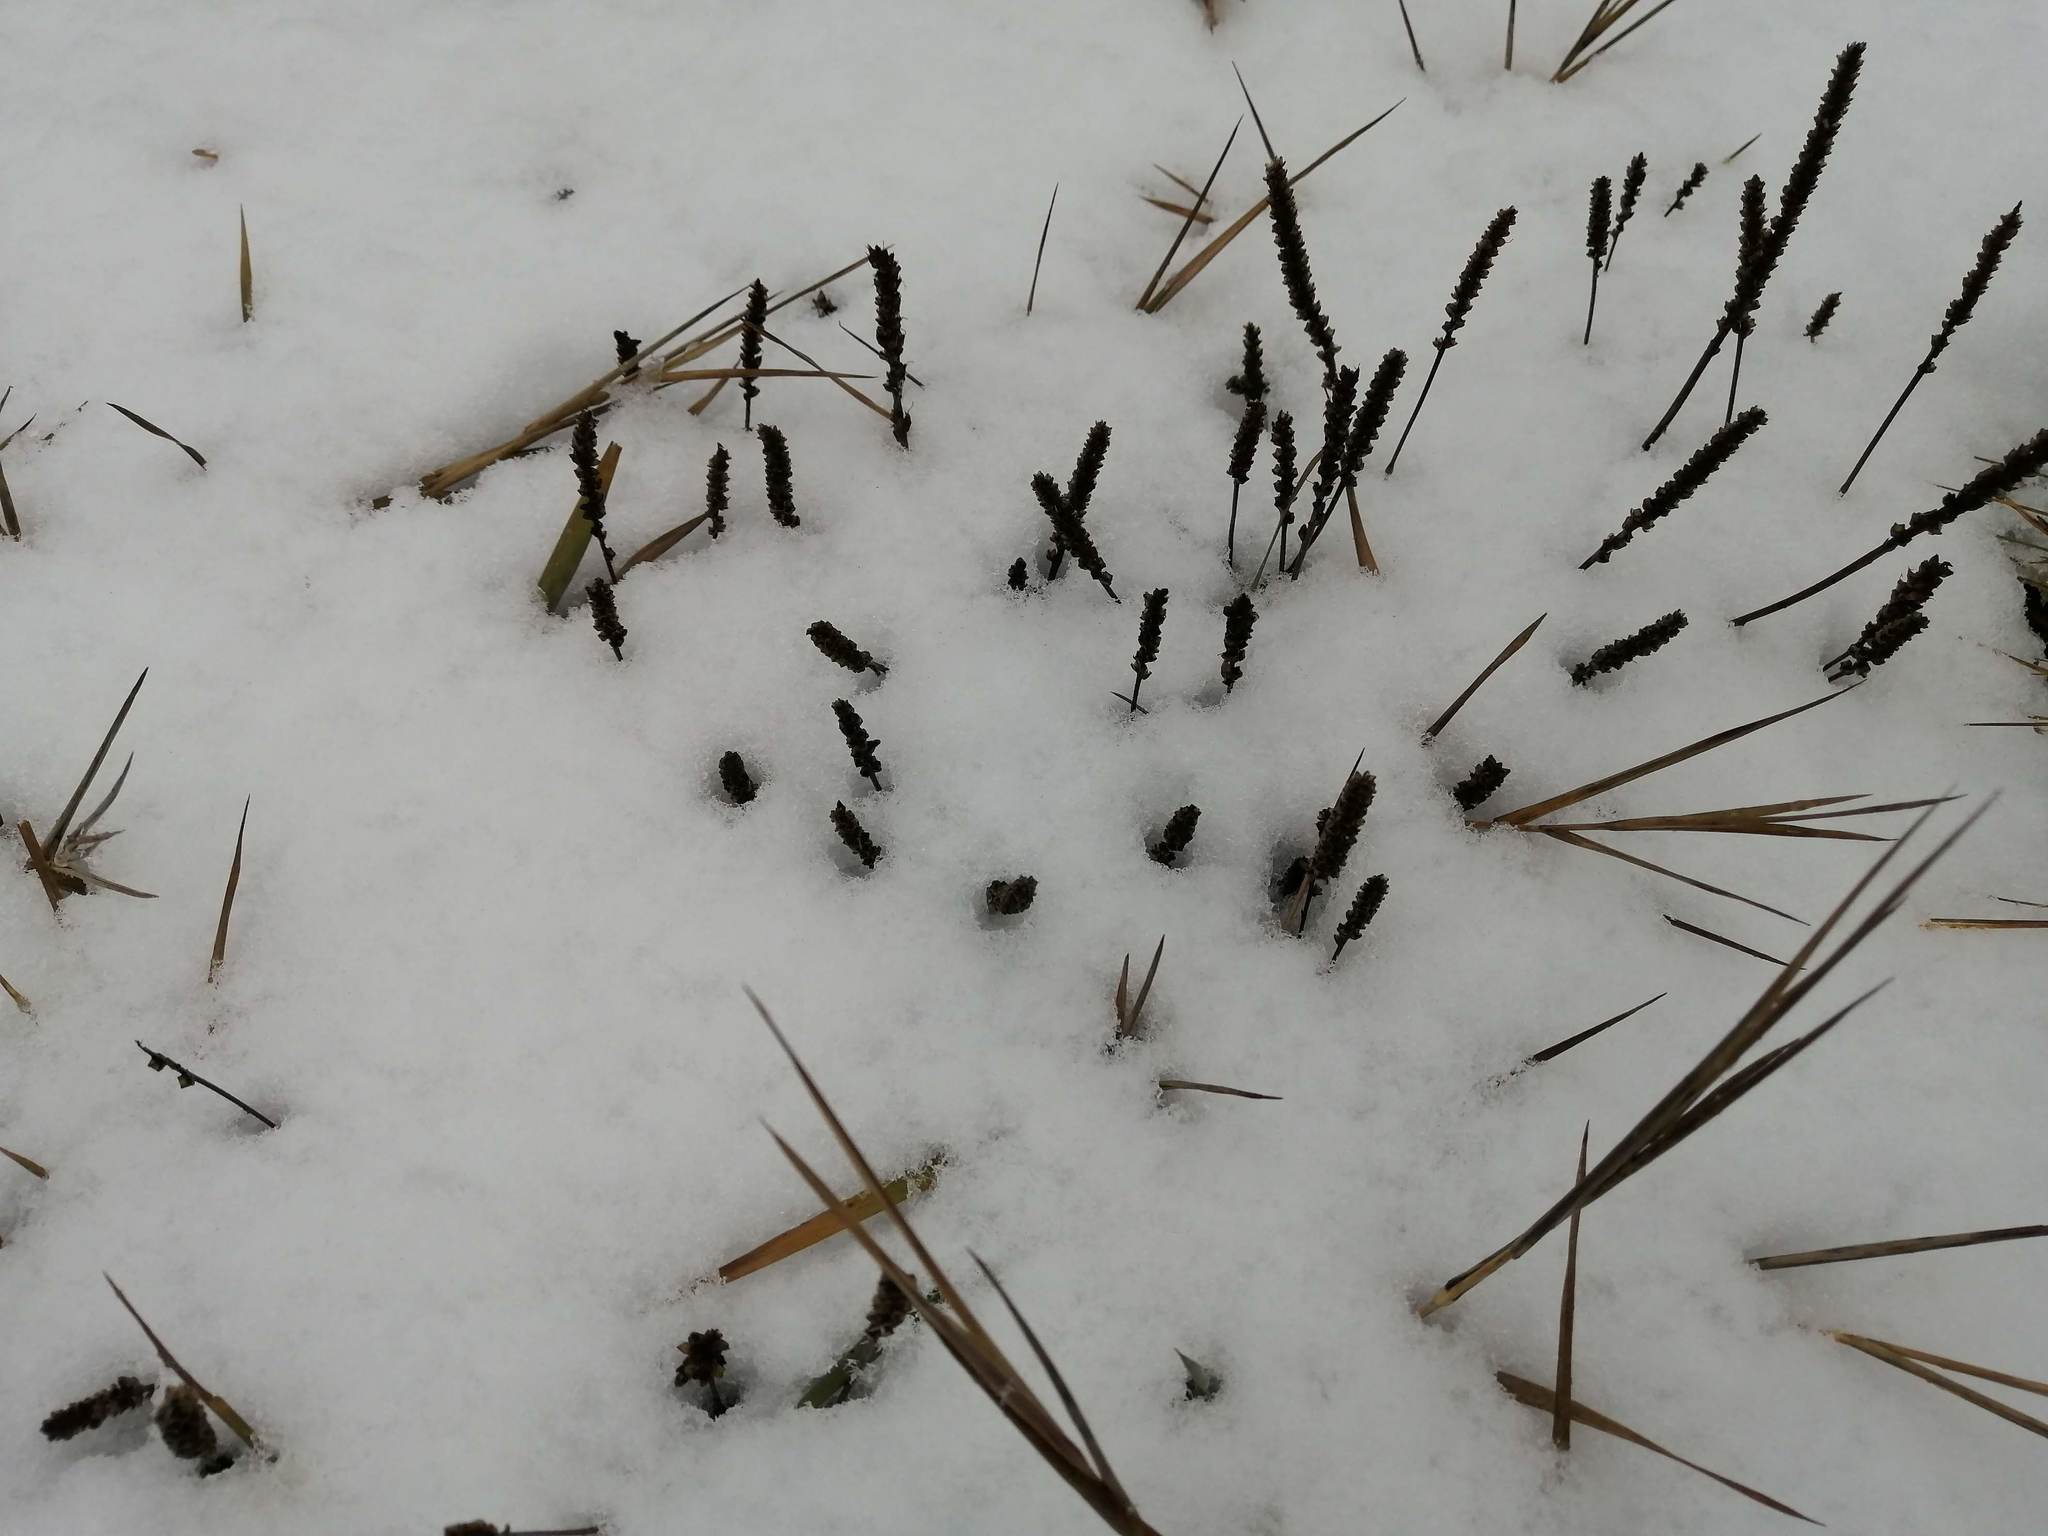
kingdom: Plantae
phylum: Tracheophyta
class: Magnoliopsida
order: Lamiales
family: Plantaginaceae
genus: Plantago
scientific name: Plantago major
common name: Common plantain
